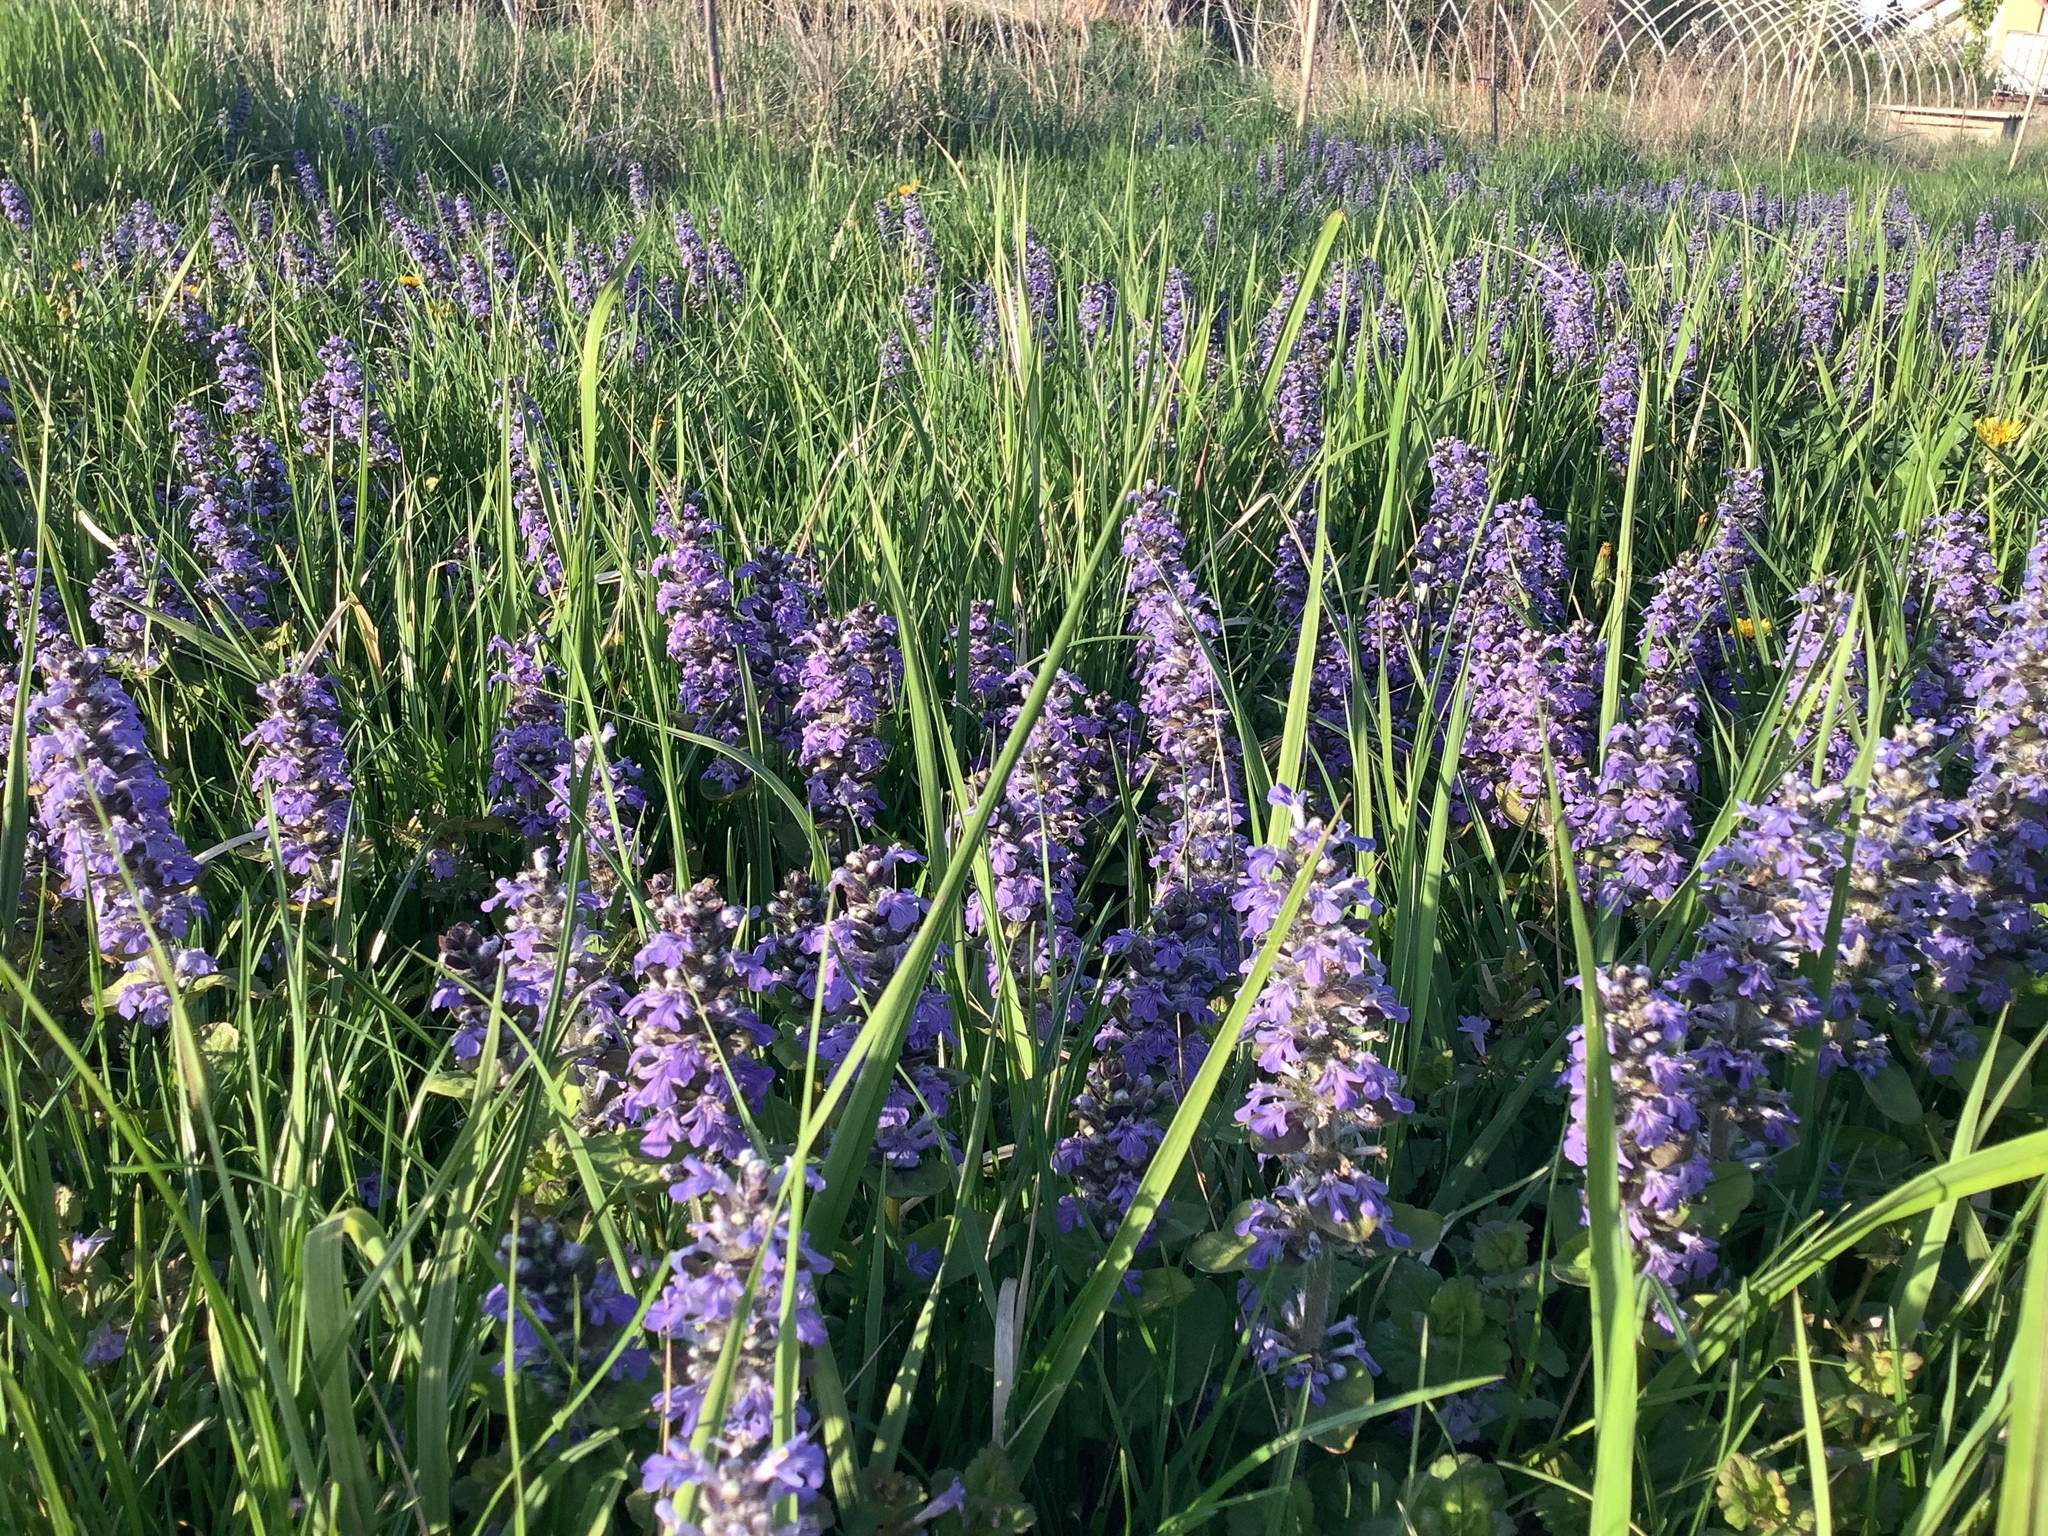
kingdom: Plantae
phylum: Tracheophyta
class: Magnoliopsida
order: Lamiales
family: Lamiaceae
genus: Ajuga
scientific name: Ajuga reptans
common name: Bugle
